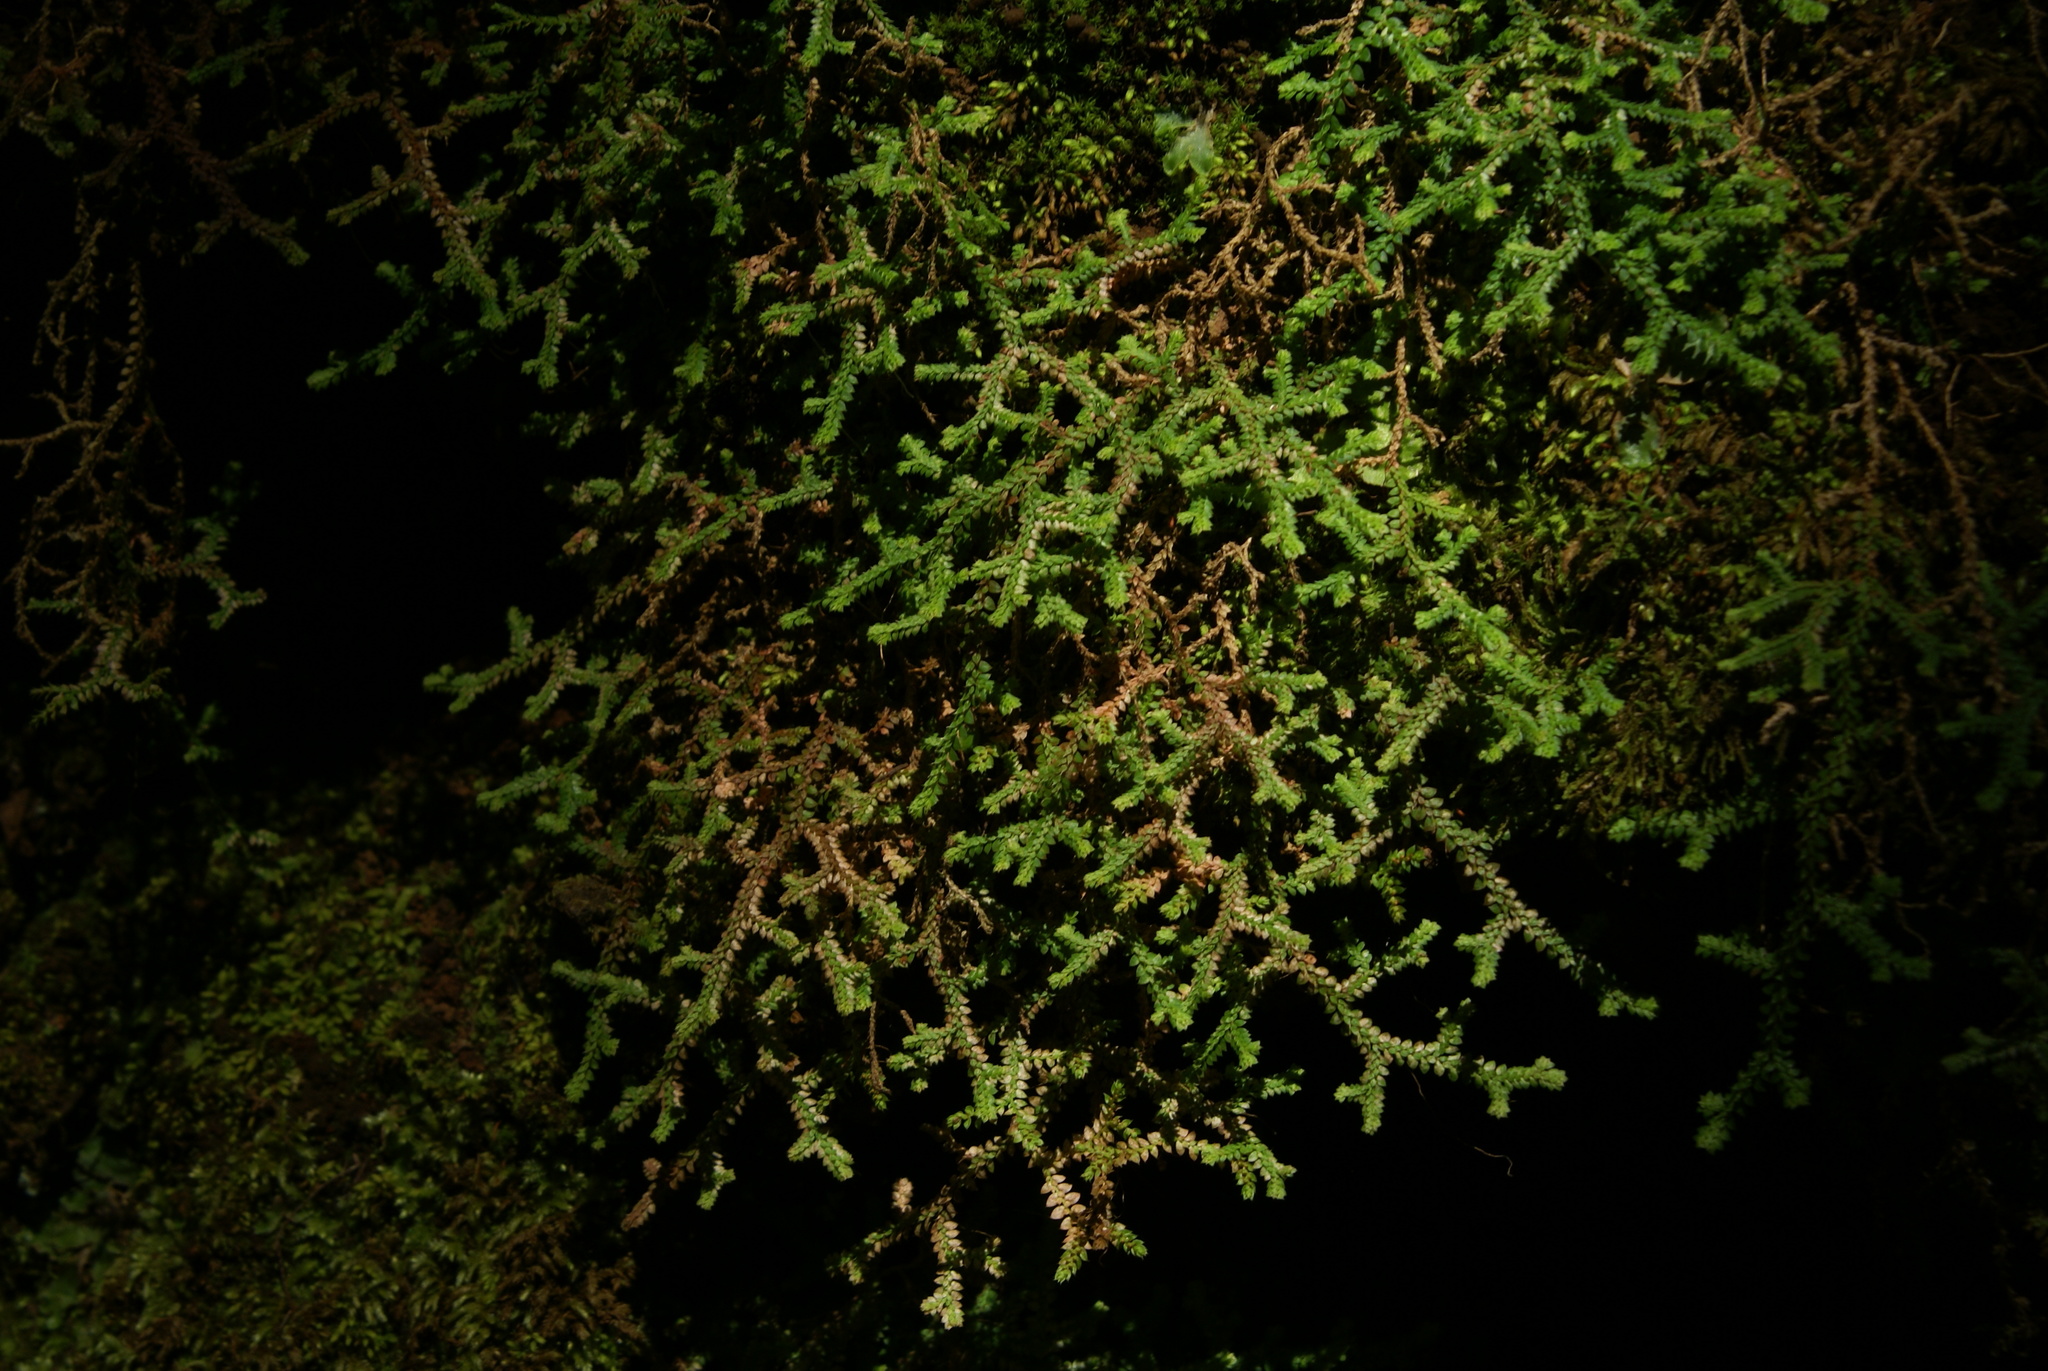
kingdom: Plantae
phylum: Tracheophyta
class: Lycopodiopsida
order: Selaginellales
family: Selaginellaceae
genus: Selaginella
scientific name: Selaginella denticulata
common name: Toothed-leaved clubmoss
